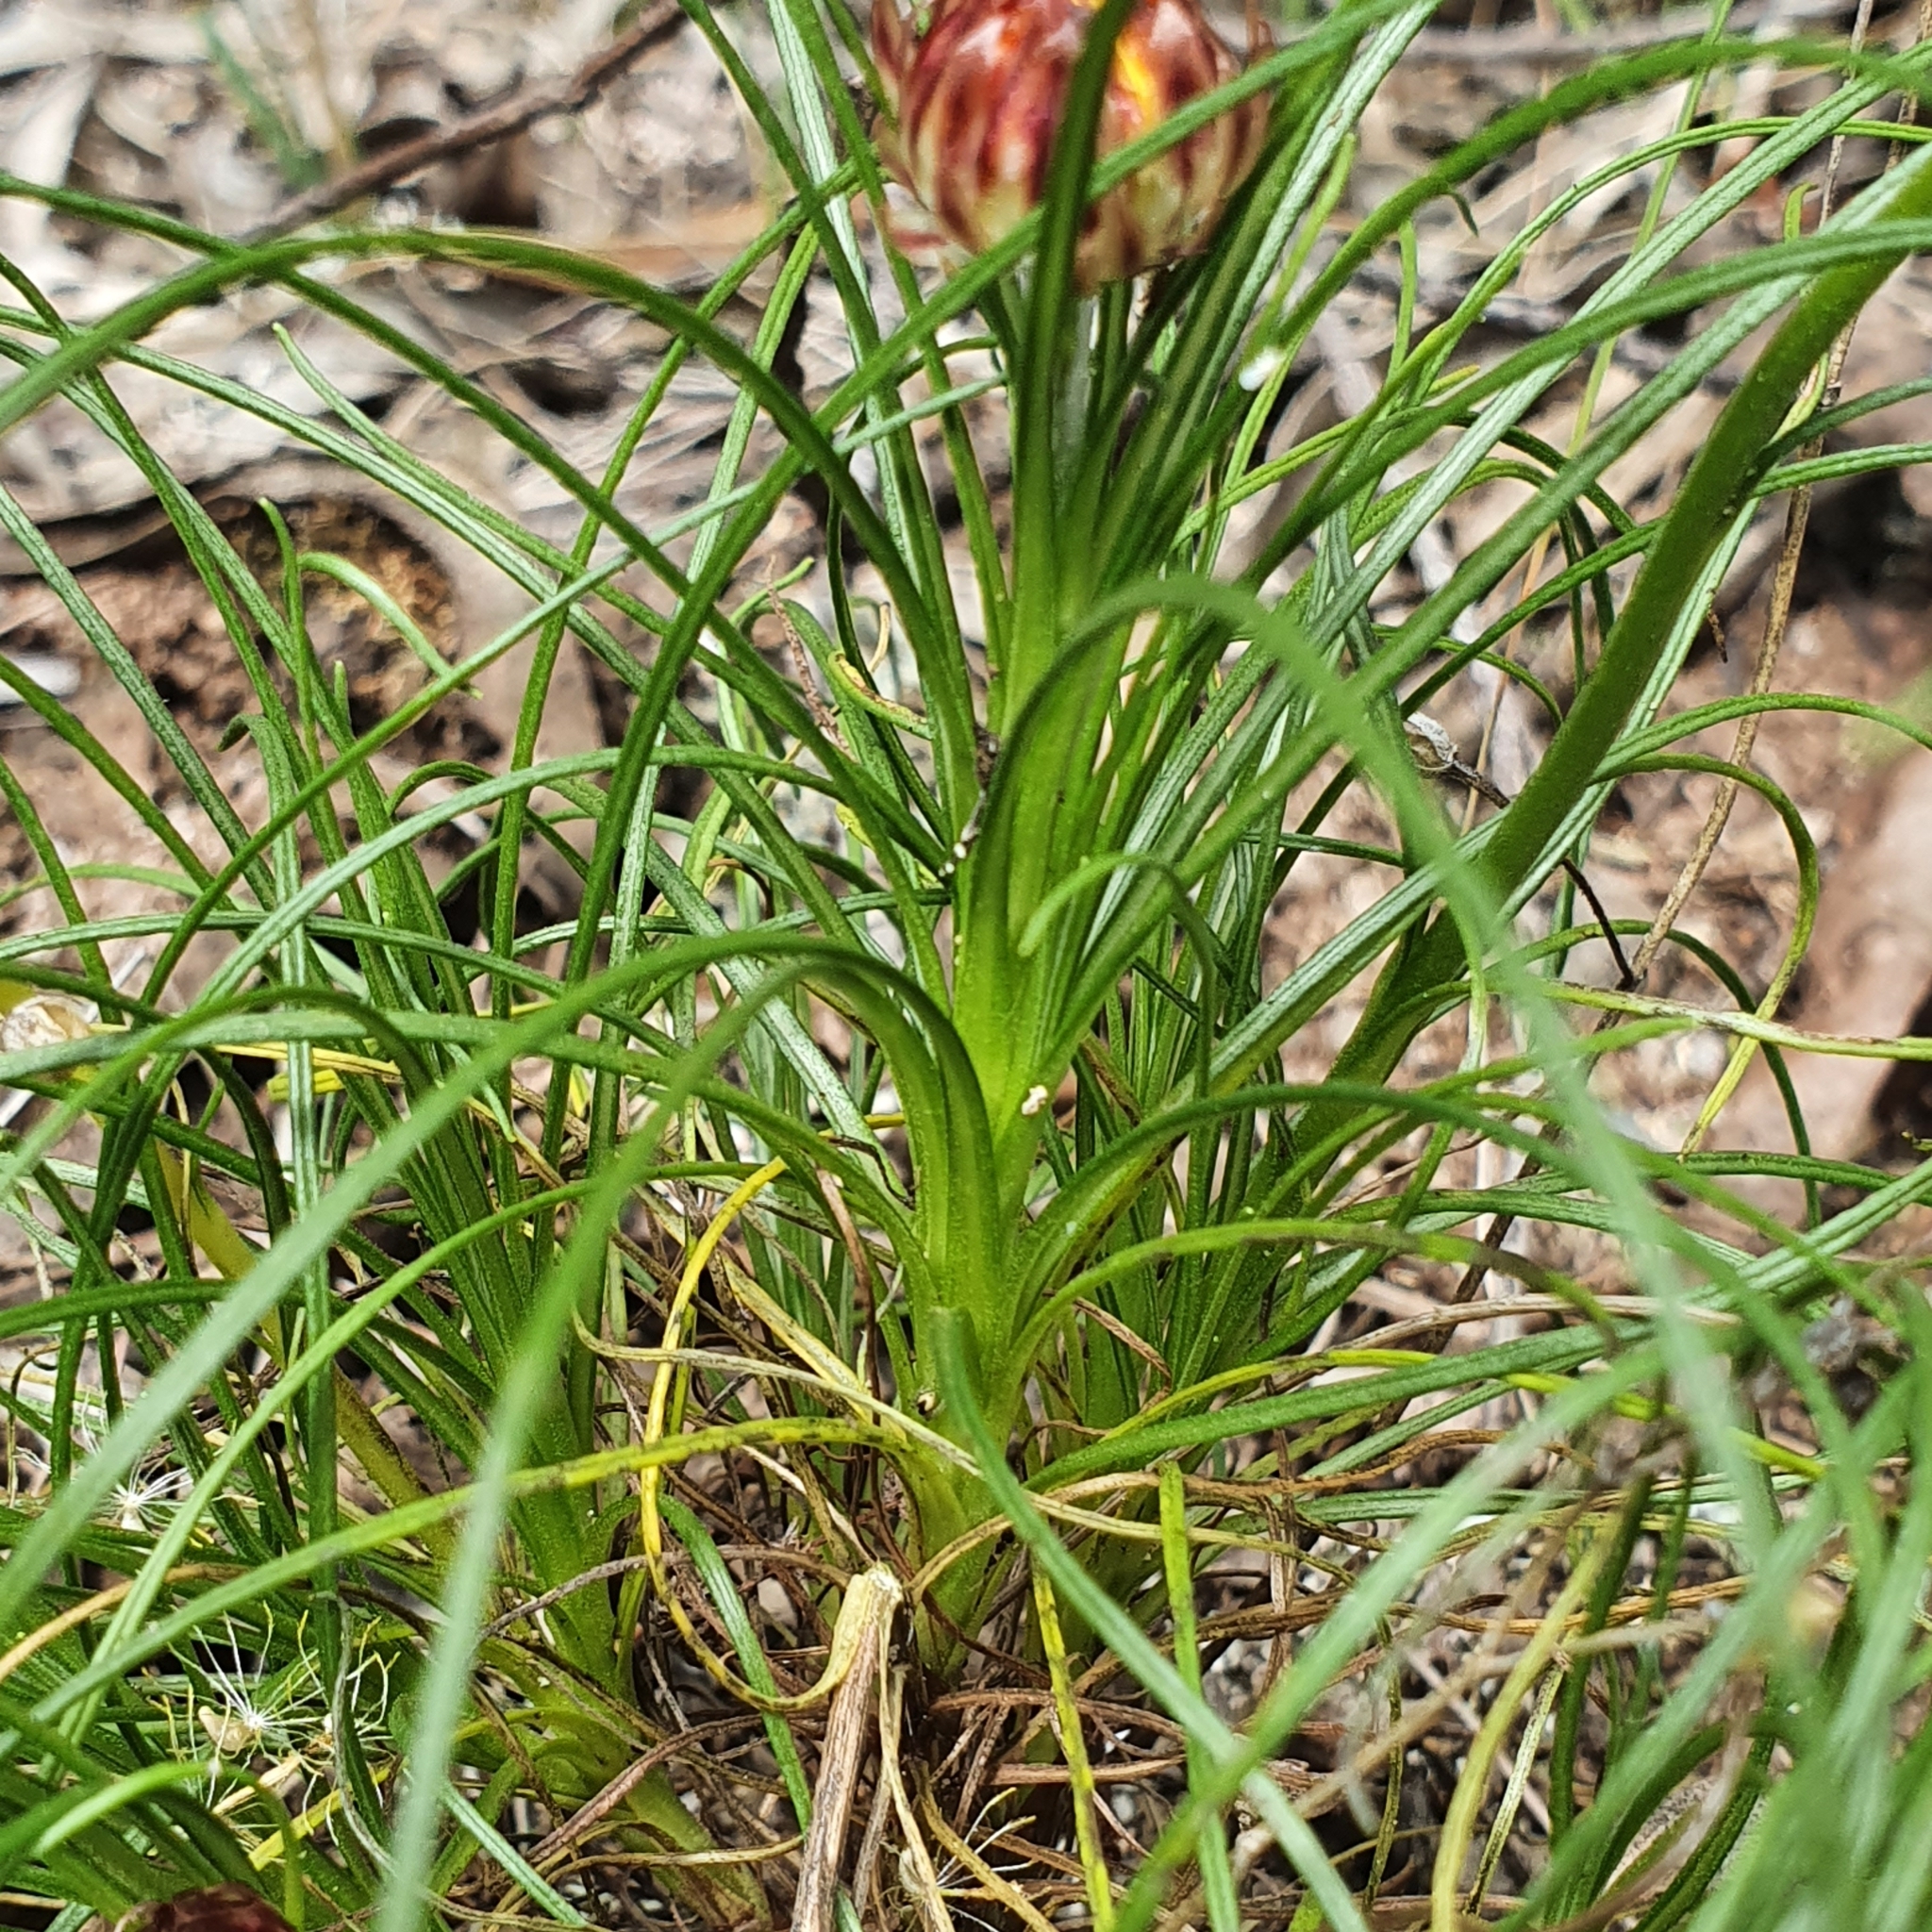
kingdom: Plantae
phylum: Tracheophyta
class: Magnoliopsida
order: Asterales
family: Asteraceae
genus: Leucochrysum
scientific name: Leucochrysum graminifolium
